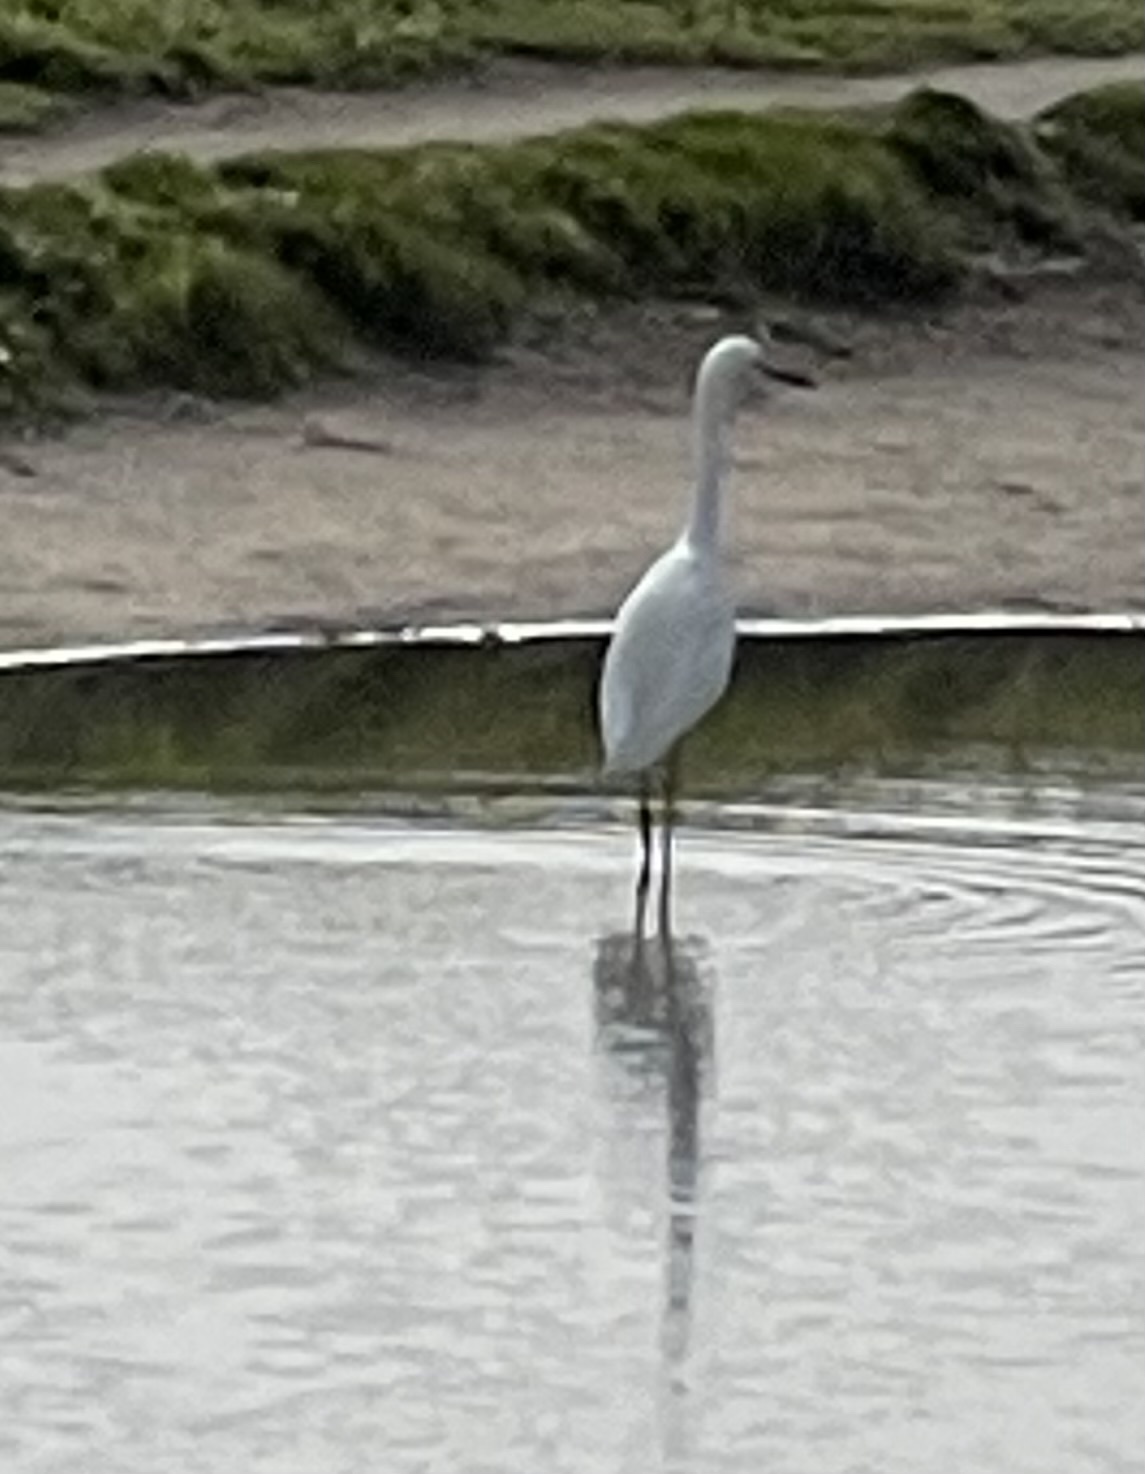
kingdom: Animalia
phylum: Chordata
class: Aves
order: Pelecaniformes
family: Ardeidae
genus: Egretta
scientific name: Egretta thula
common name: Snowy egret
